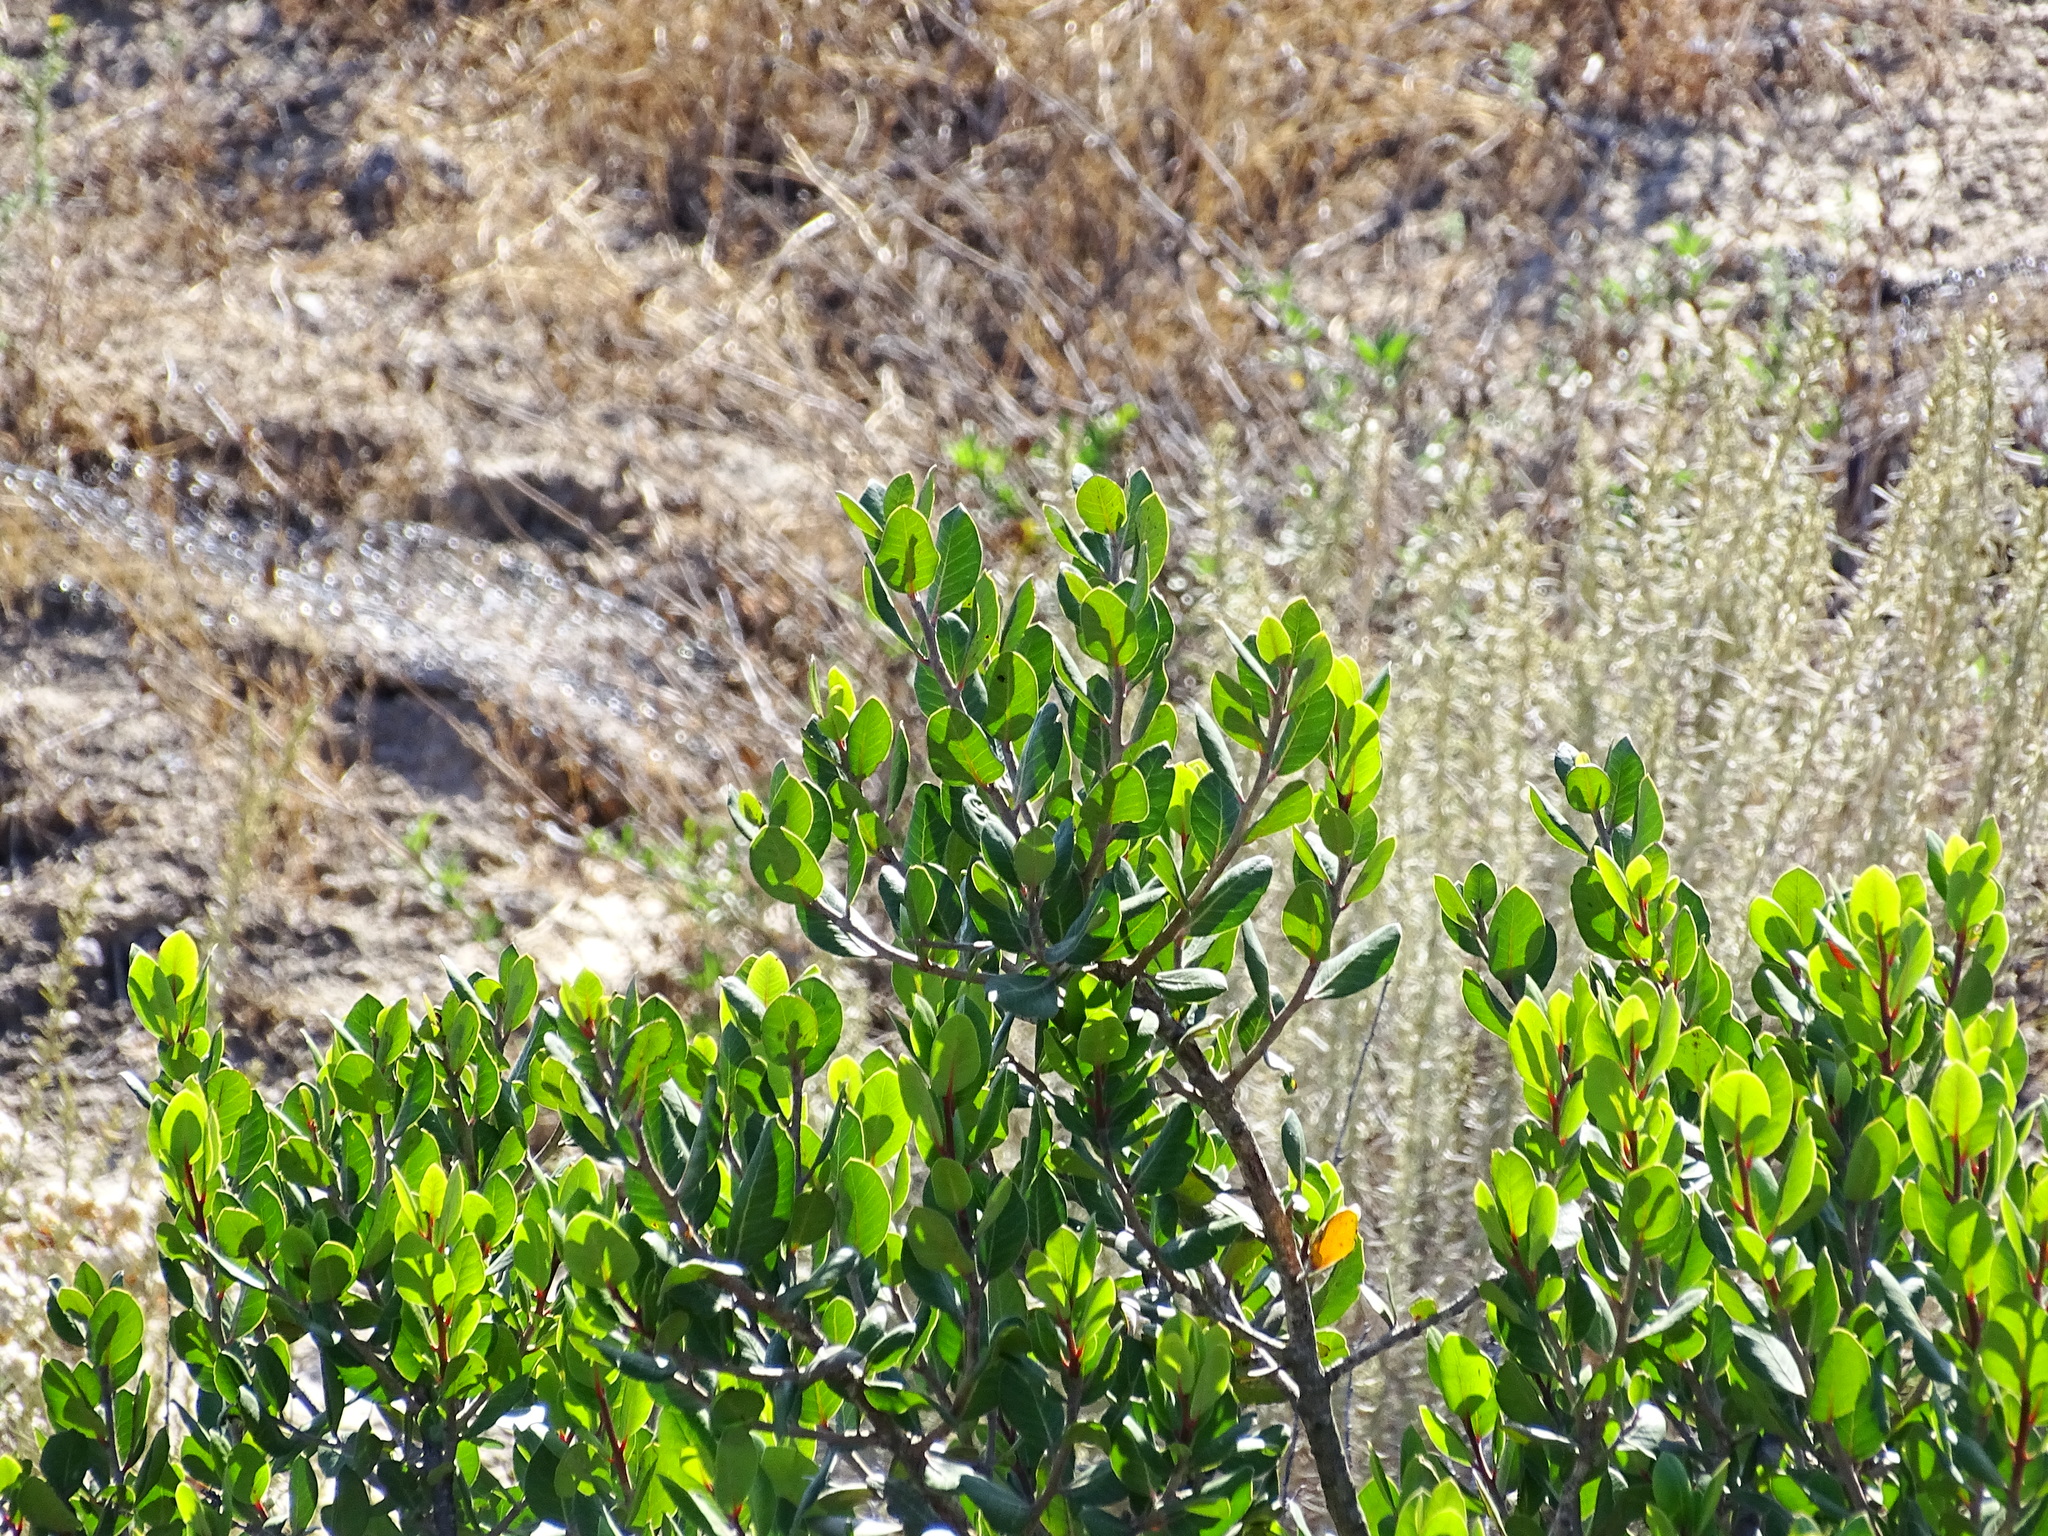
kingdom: Plantae
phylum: Tracheophyta
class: Magnoliopsida
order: Sapindales
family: Anacardiaceae
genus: Rhus
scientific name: Rhus integrifolia
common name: Lemonade sumac
